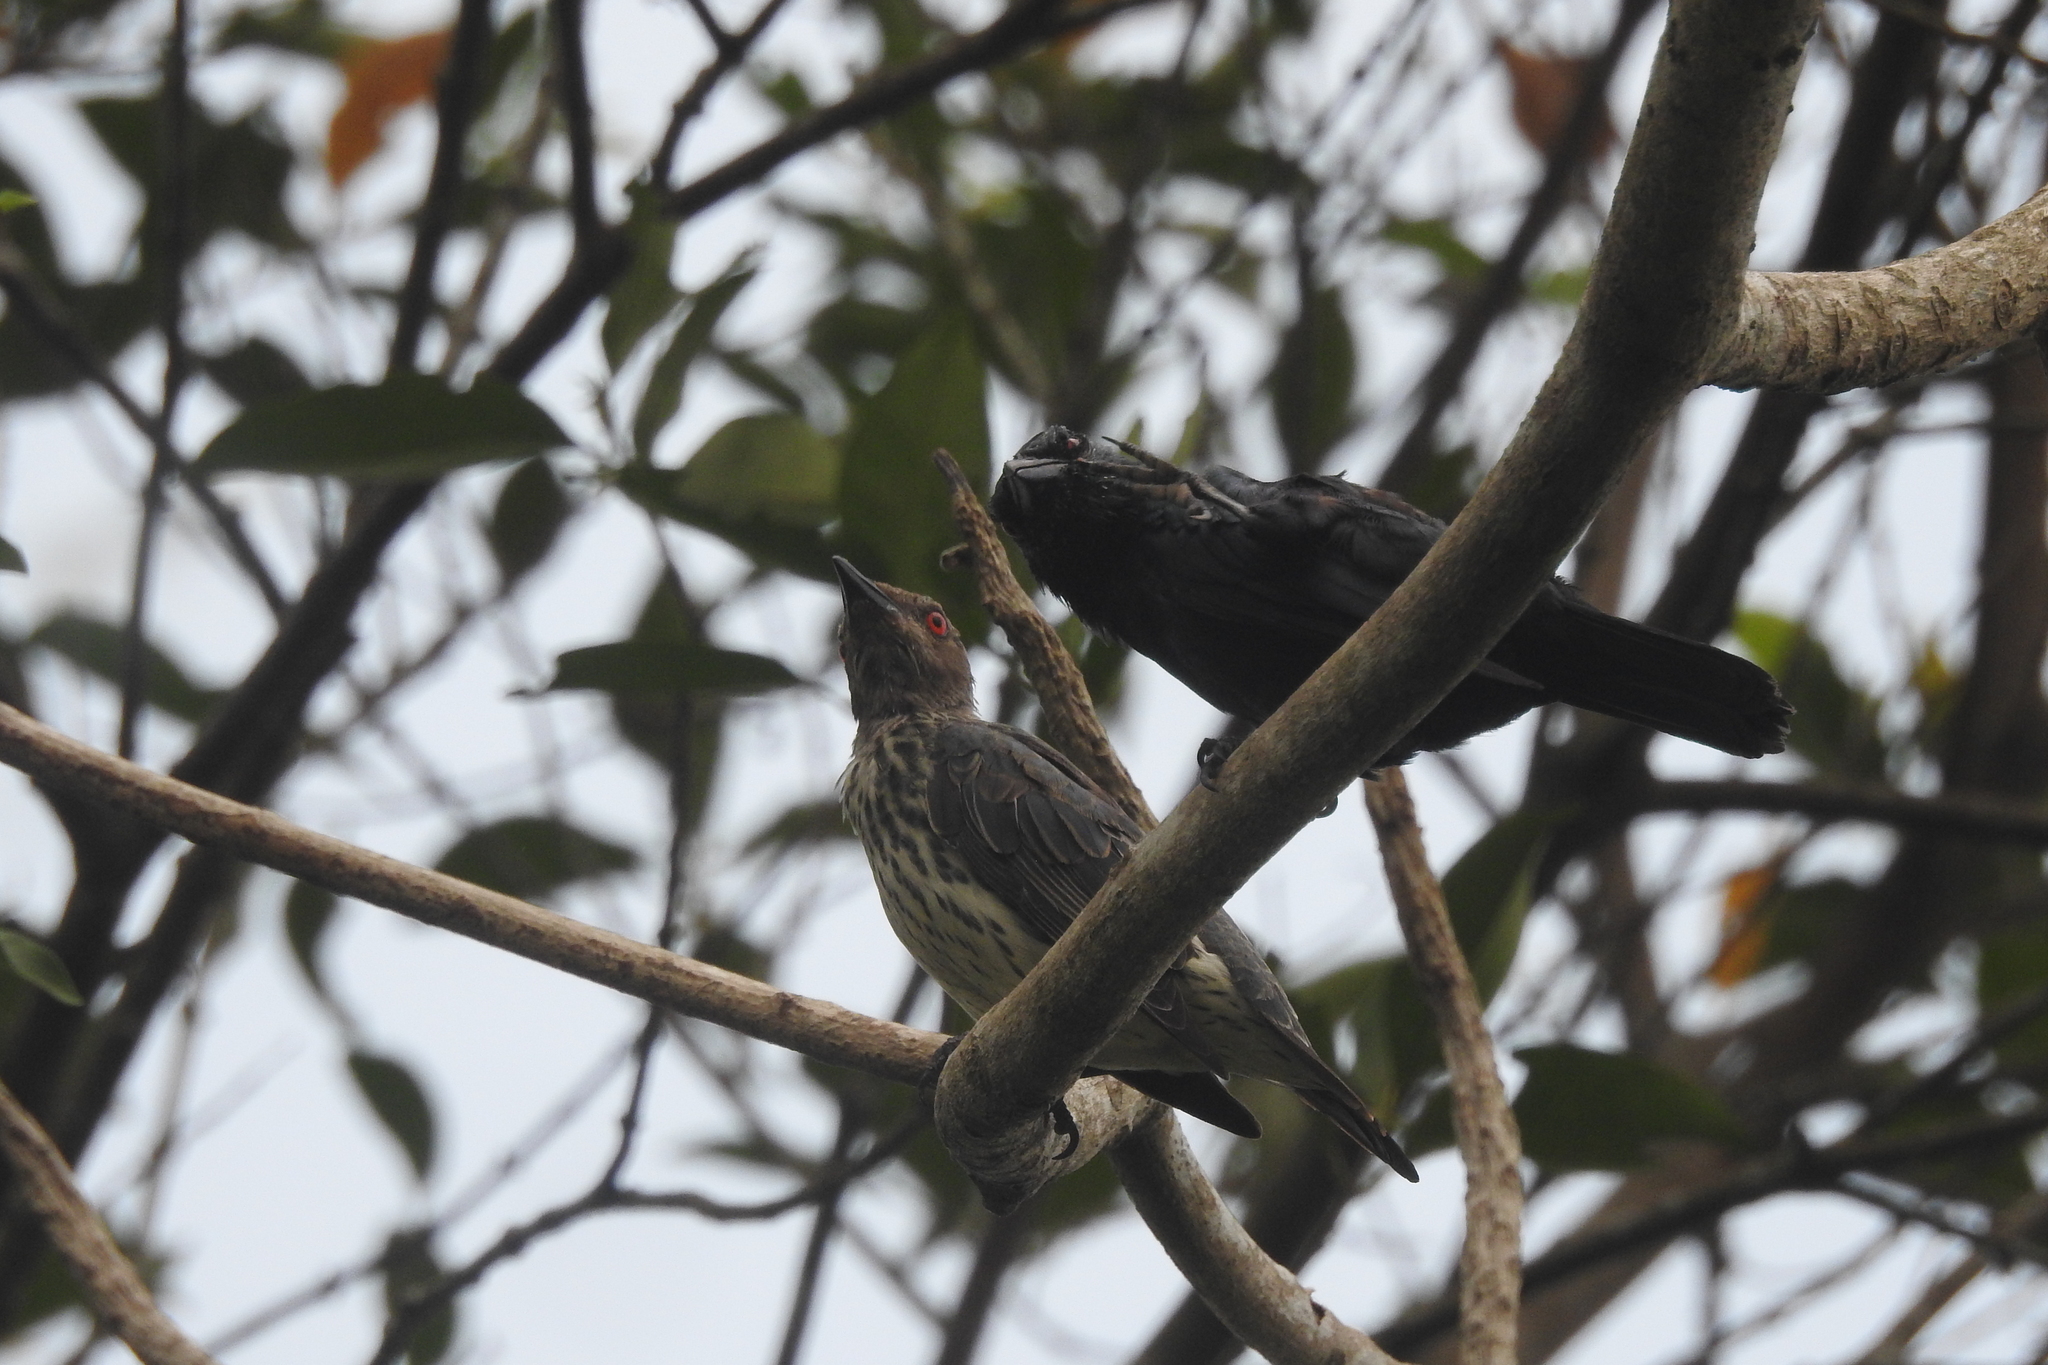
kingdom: Animalia
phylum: Chordata
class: Aves
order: Passeriformes
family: Sturnidae
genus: Aplonis
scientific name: Aplonis panayensis
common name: Asian glossy starling
